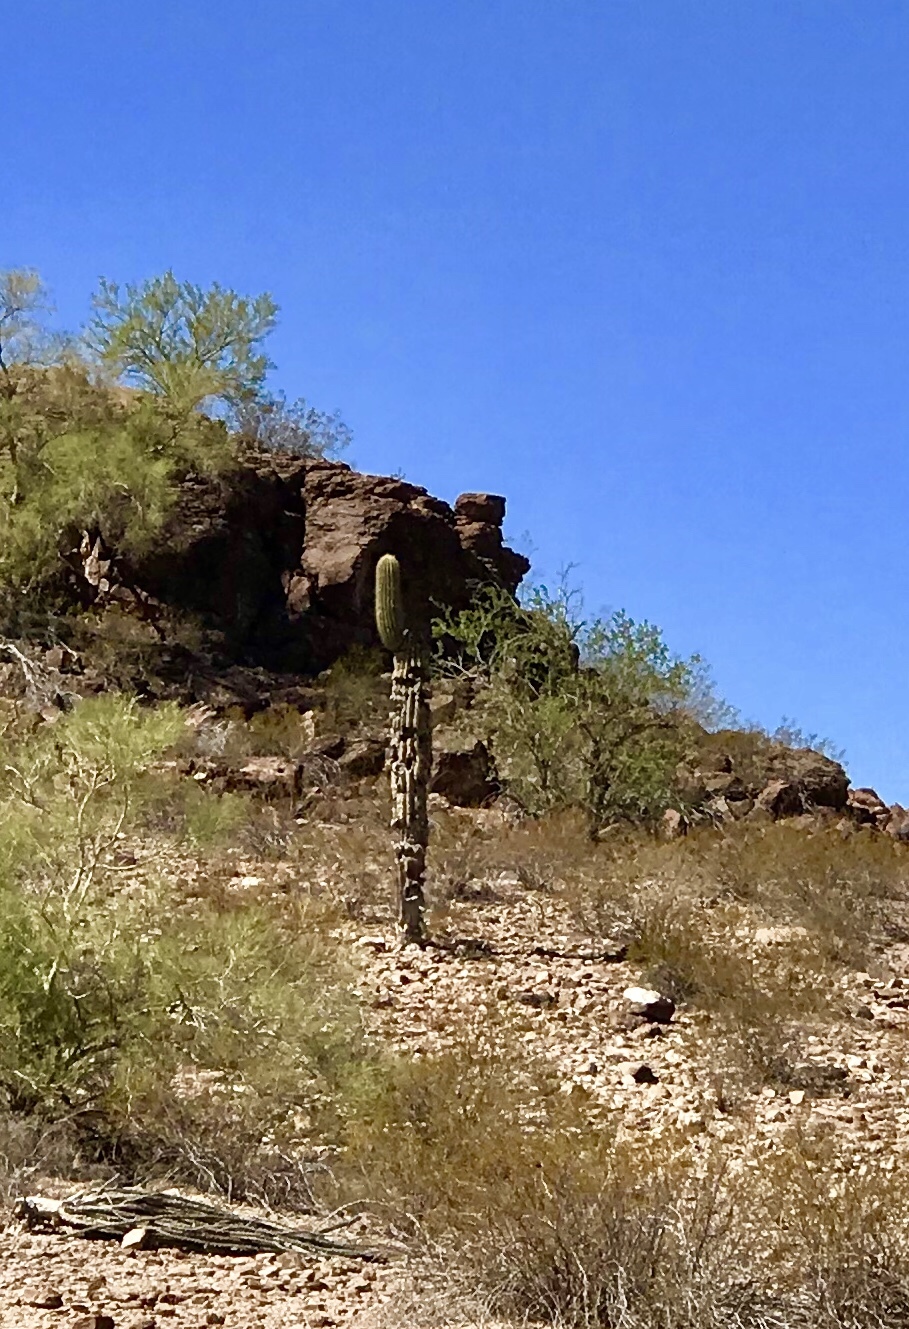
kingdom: Plantae
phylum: Tracheophyta
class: Magnoliopsida
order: Caryophyllales
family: Cactaceae
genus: Carnegiea
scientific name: Carnegiea gigantea
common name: Saguaro
